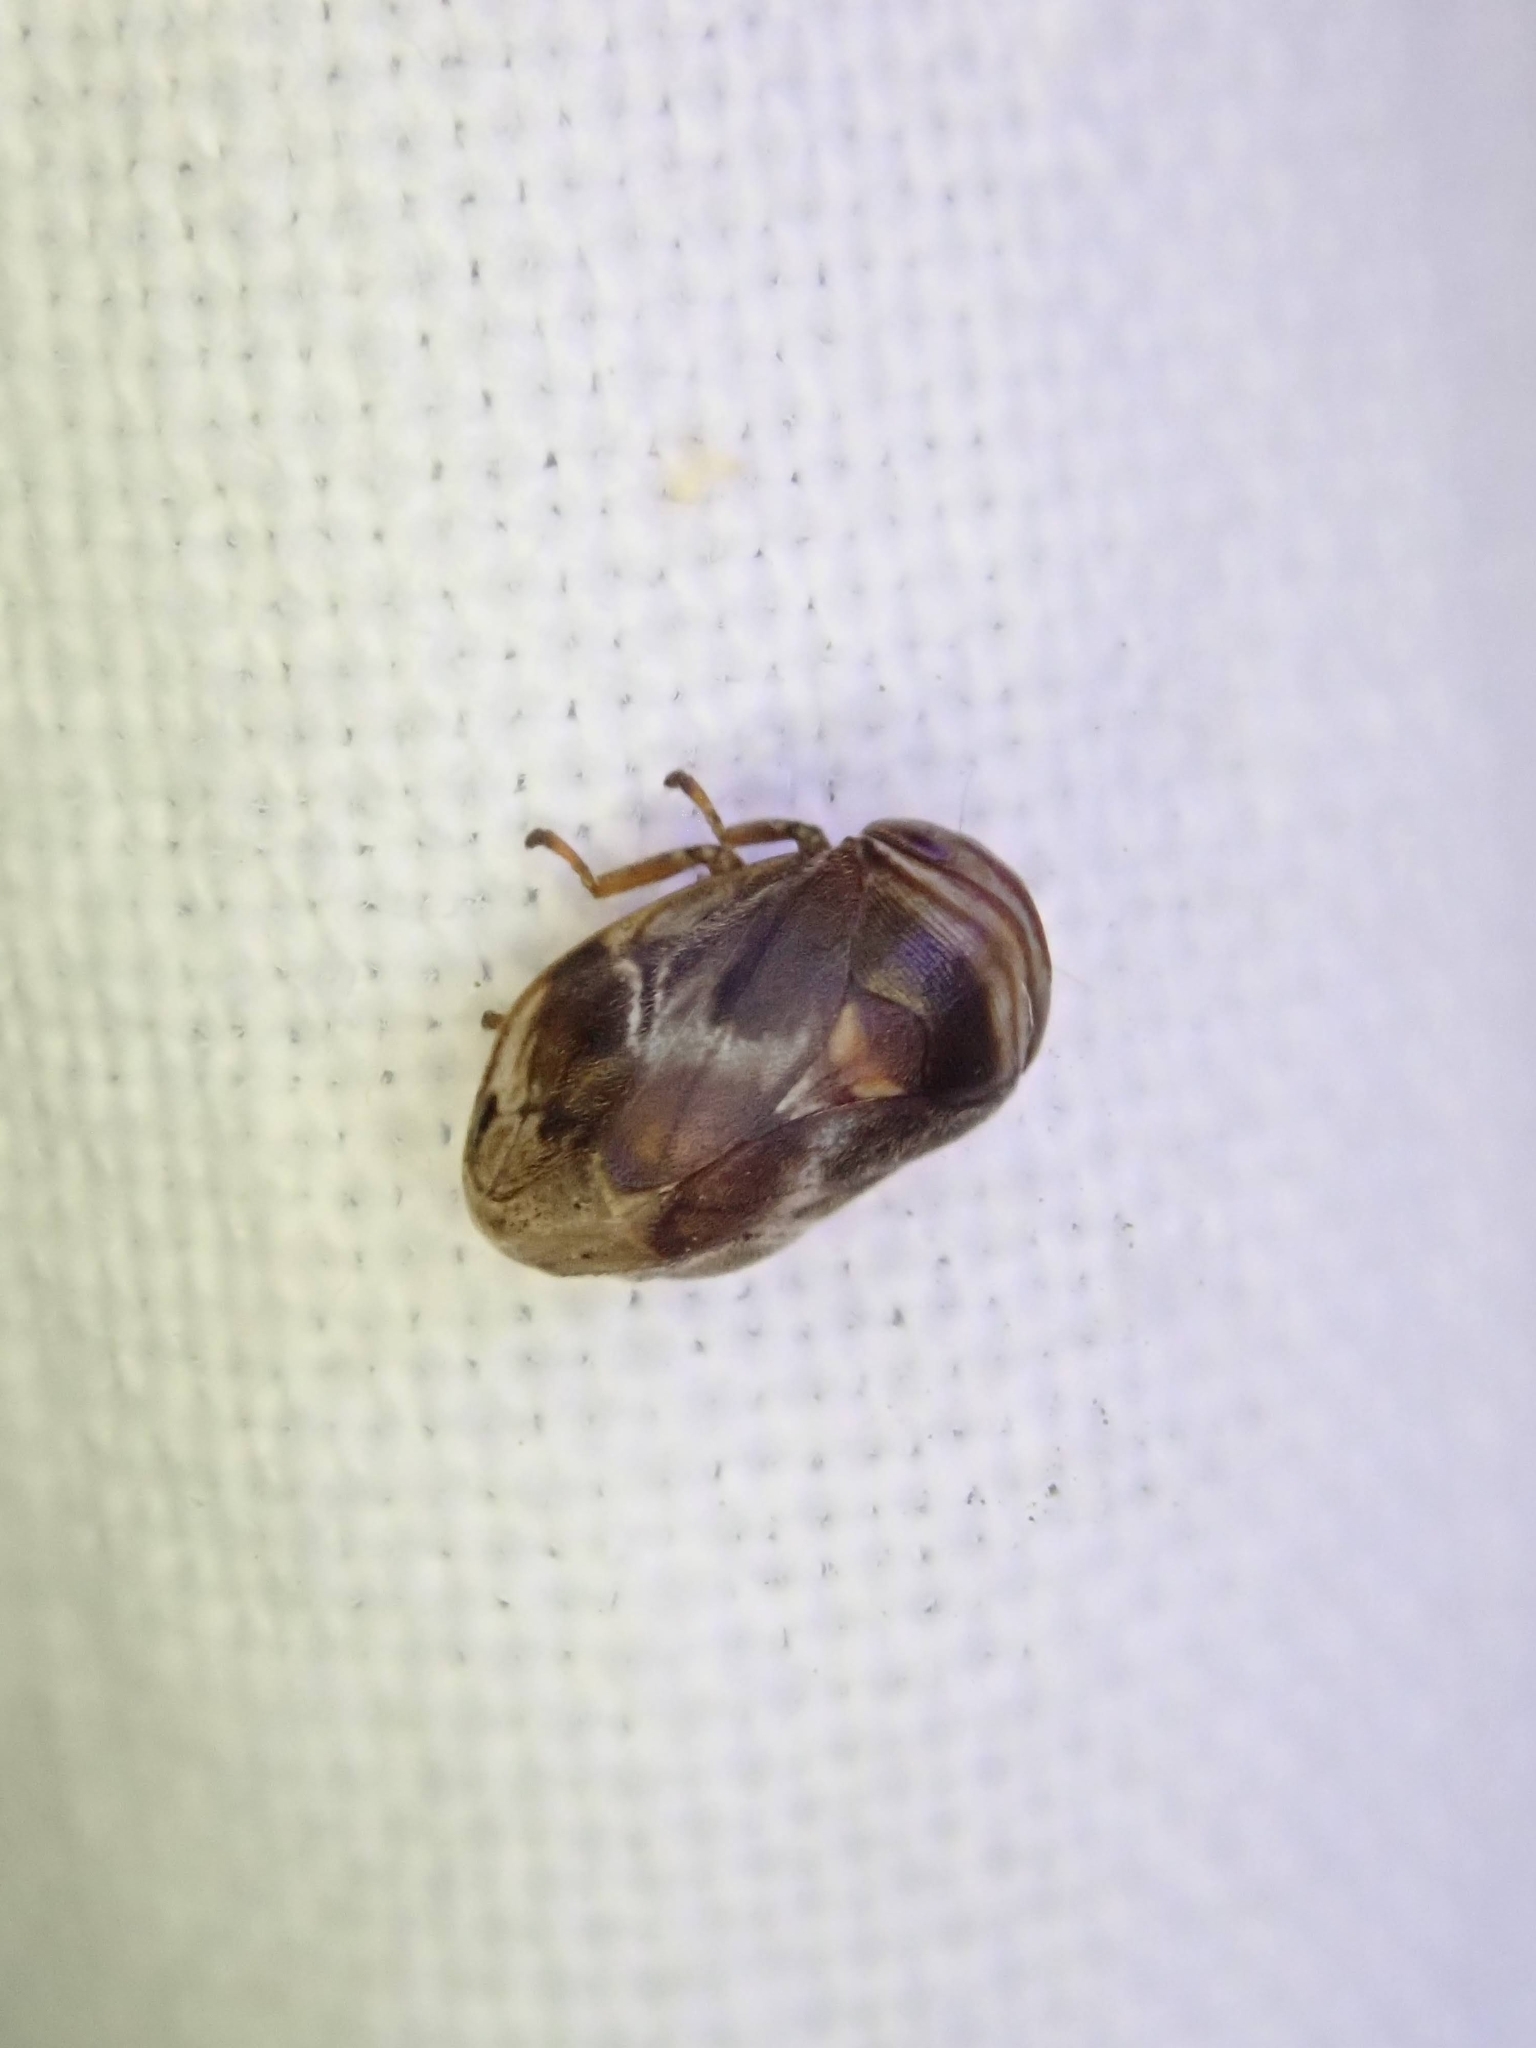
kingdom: Animalia
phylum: Arthropoda
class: Insecta
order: Hemiptera
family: Clastopteridae
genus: Clastoptera
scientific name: Clastoptera obtusa
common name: Alder spittlebug
